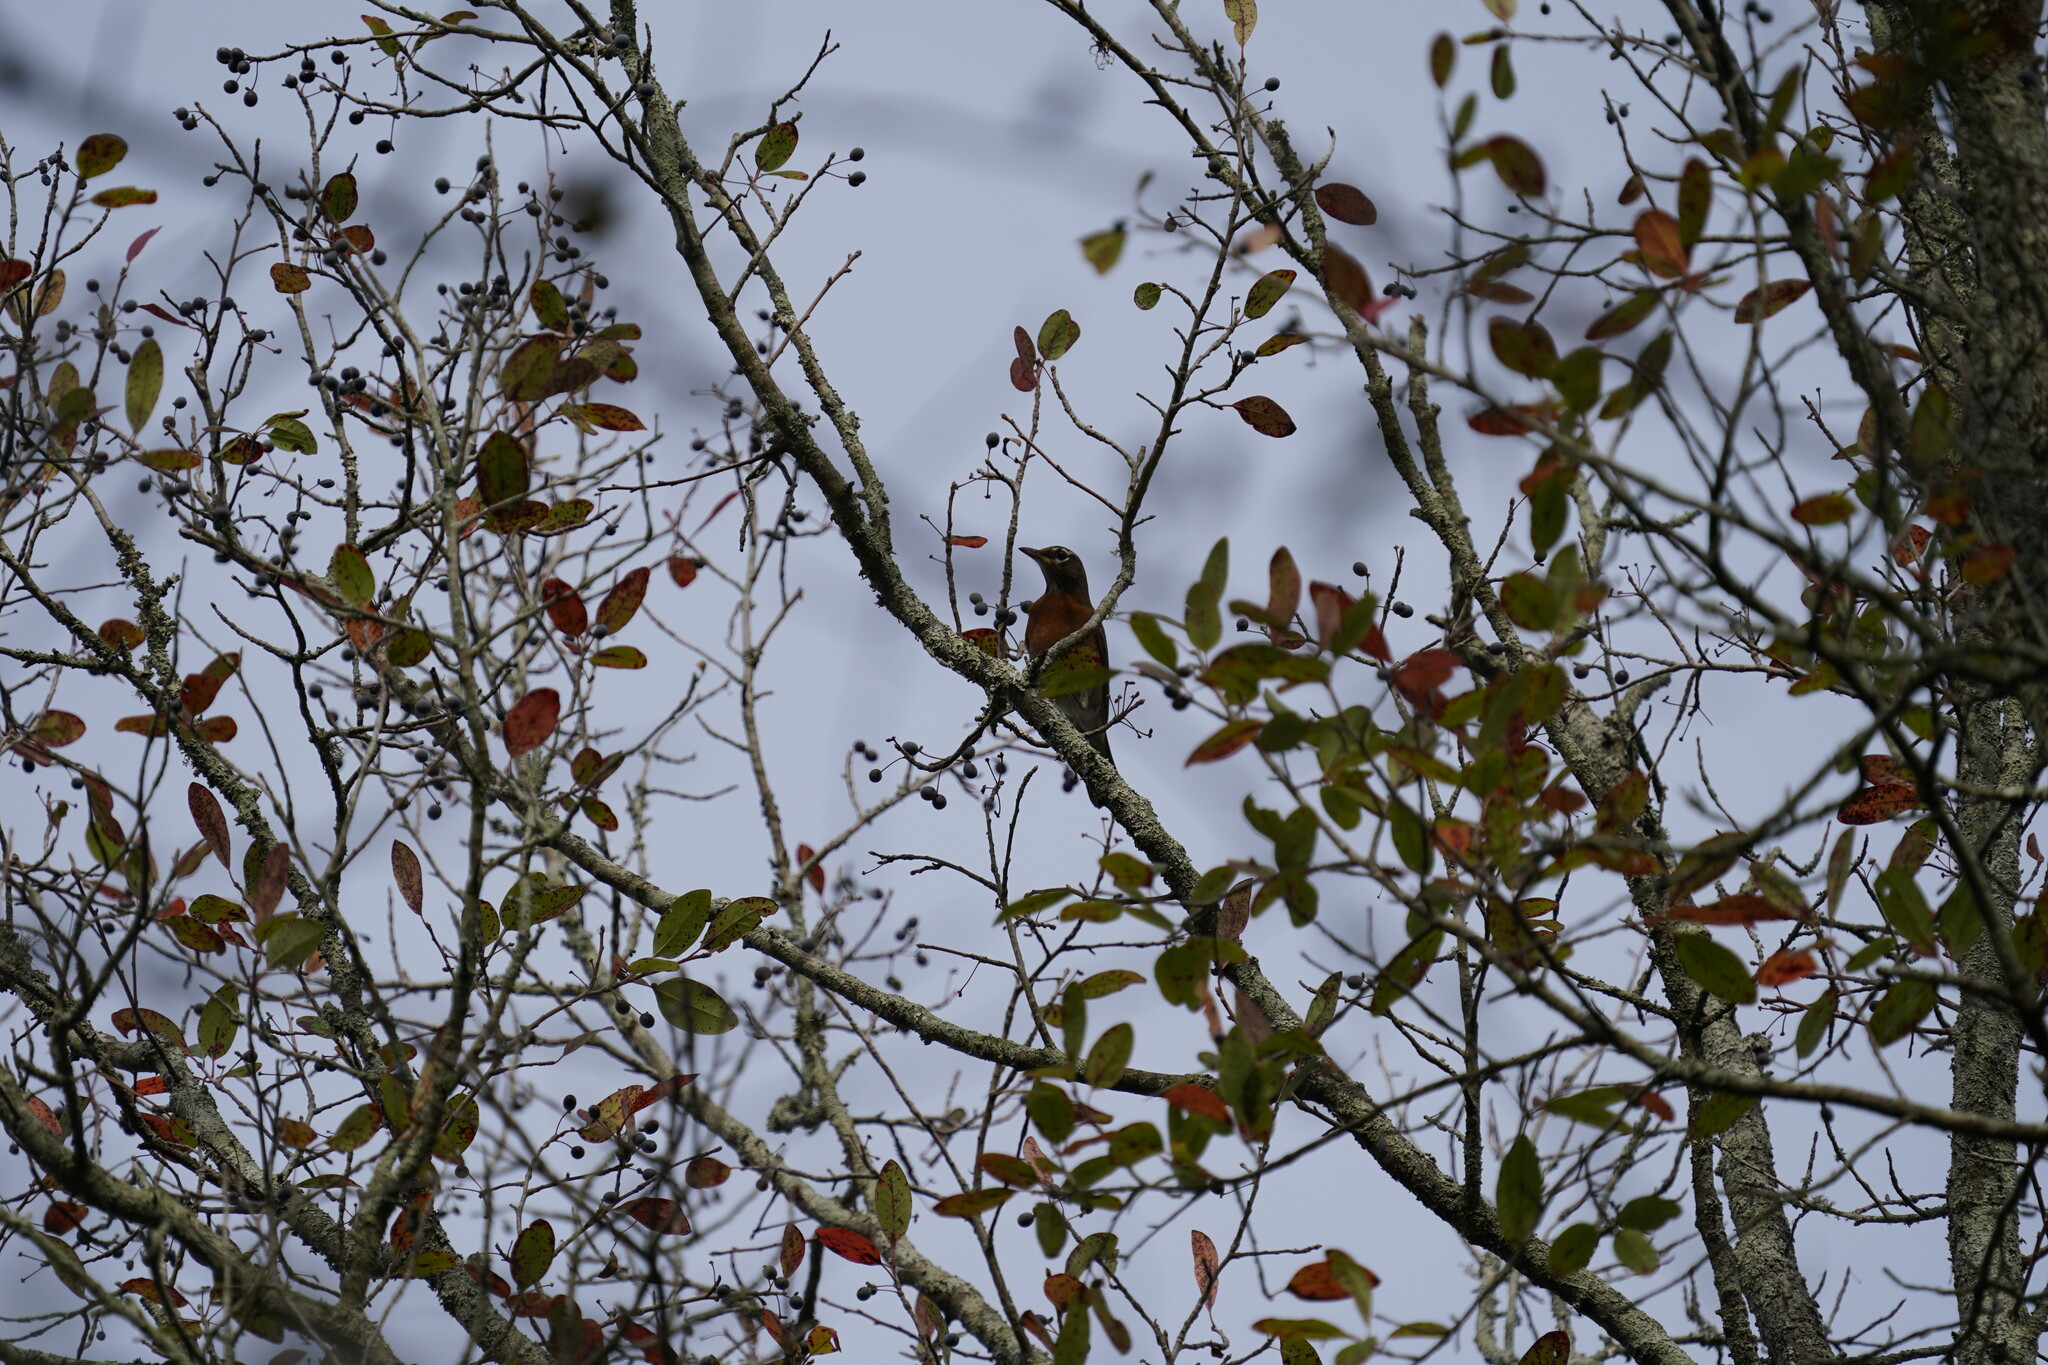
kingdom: Animalia
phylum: Chordata
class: Aves
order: Passeriformes
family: Turdidae
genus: Turdus
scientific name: Turdus migratorius
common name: American robin
